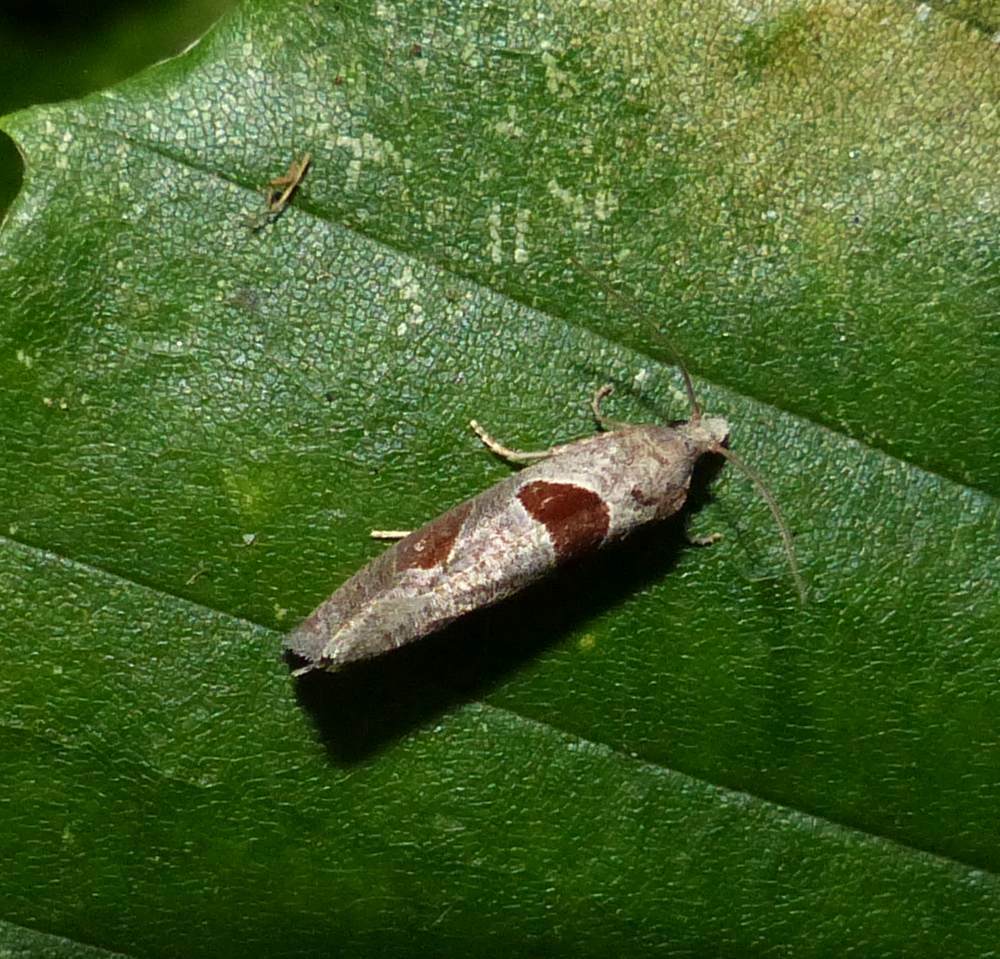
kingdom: Animalia
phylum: Arthropoda
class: Insecta
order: Lepidoptera
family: Tortricidae
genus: Pelochrista
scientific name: Pelochrista dorsisignatana
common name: Triangle-backed pelochrista moth
